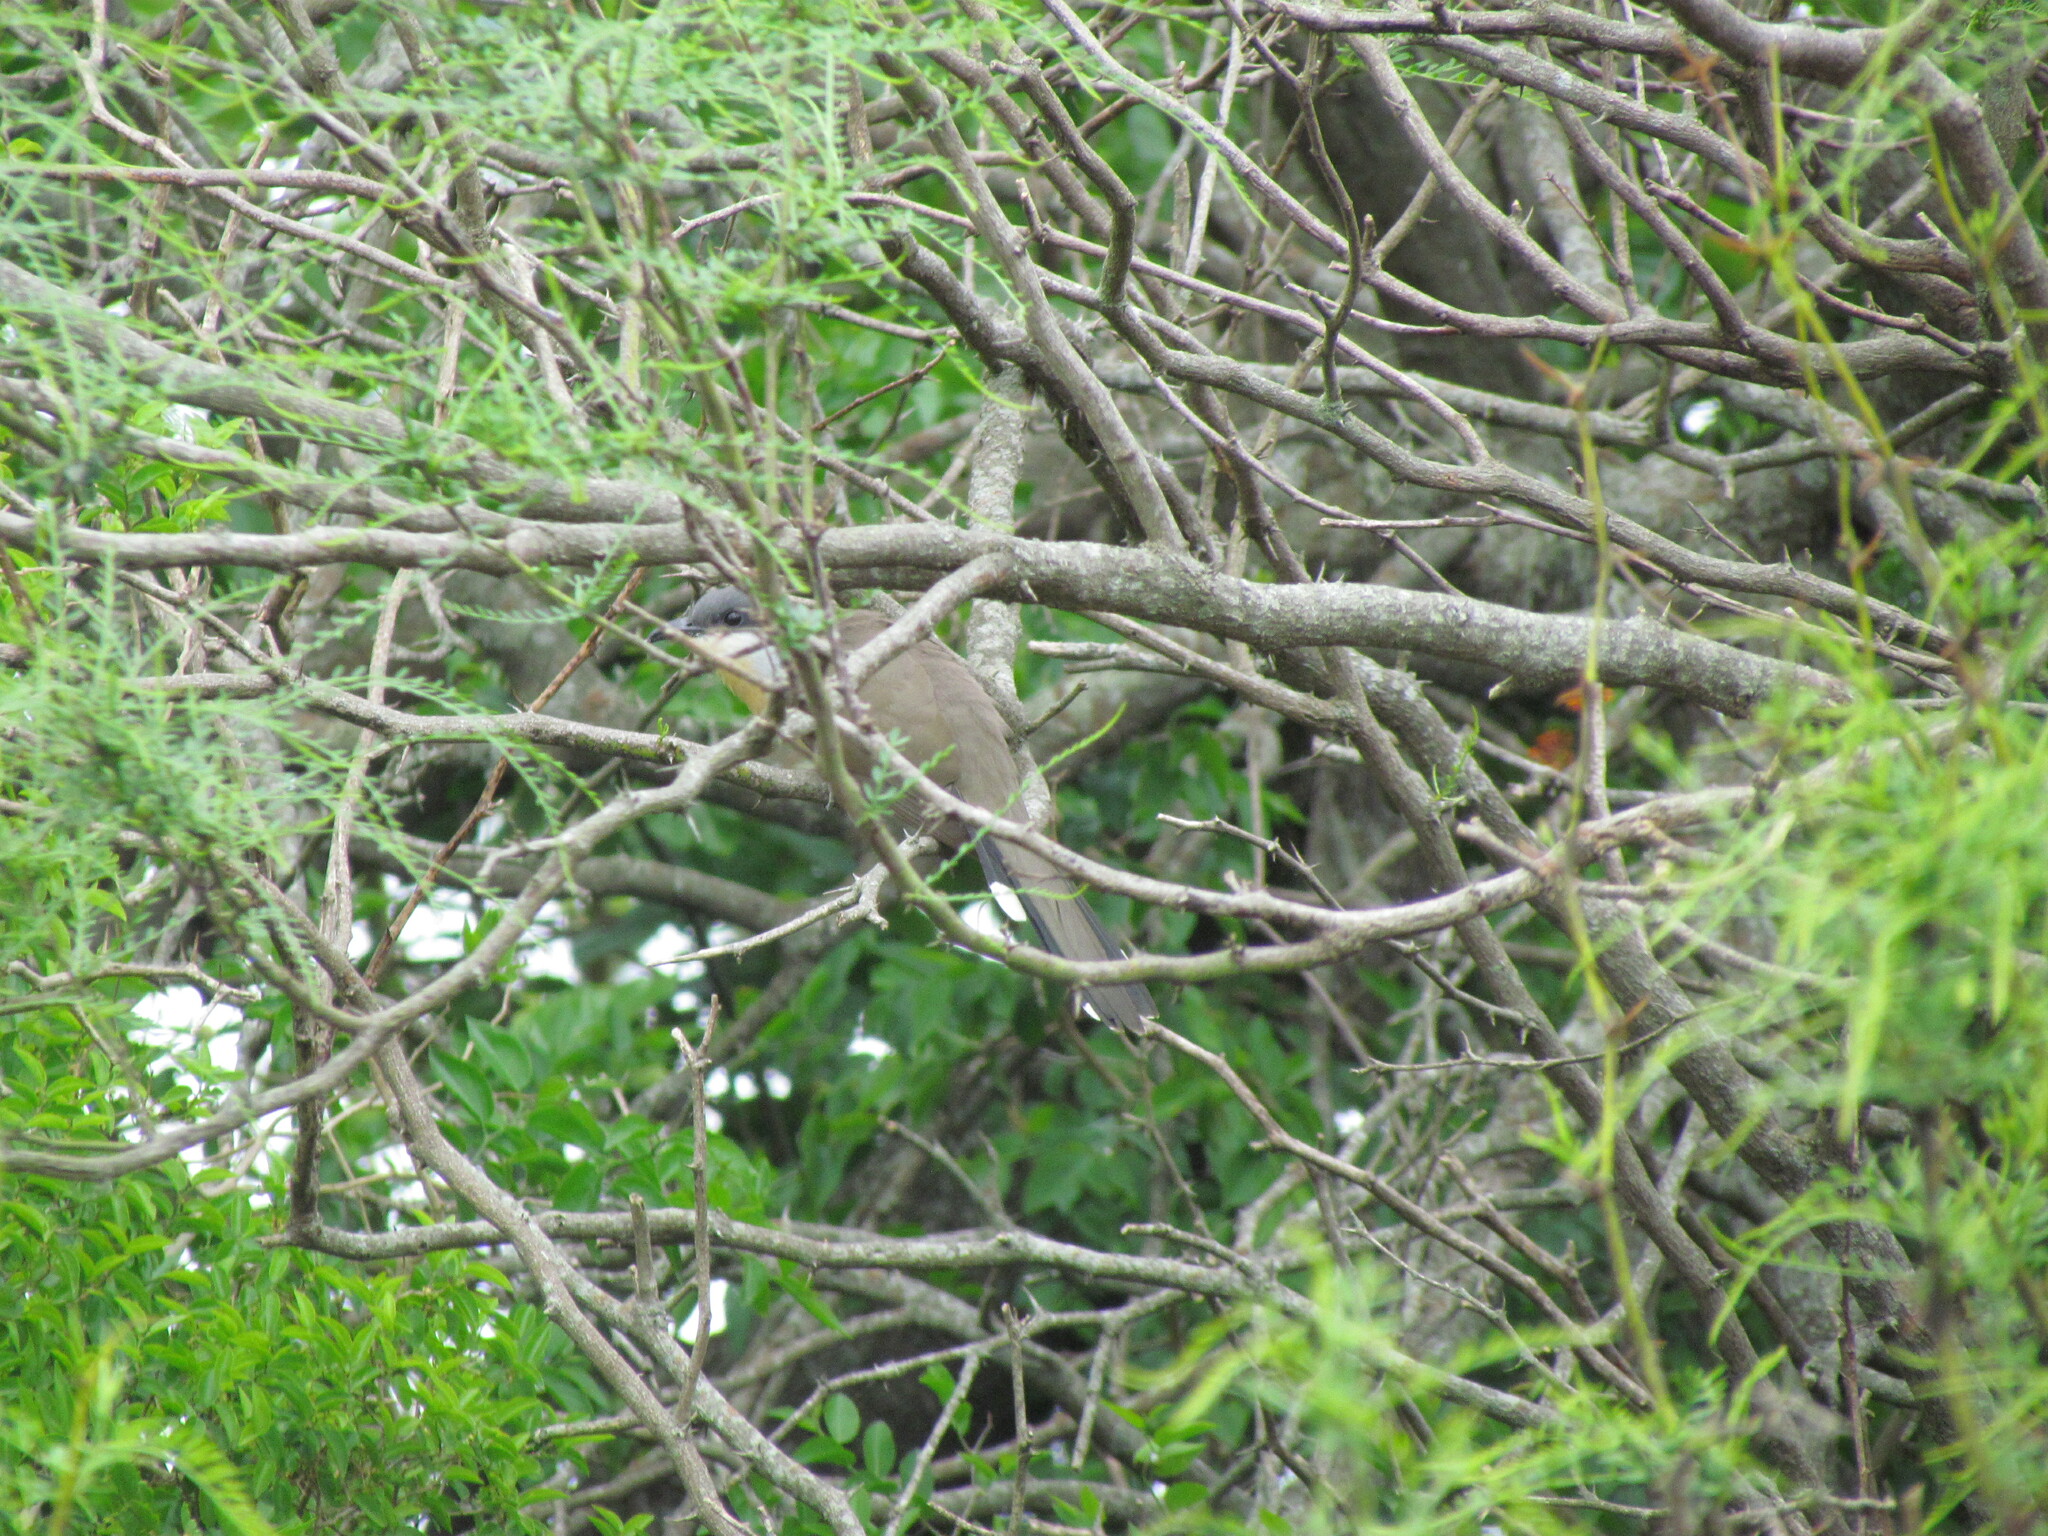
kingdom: Animalia
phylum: Chordata
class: Aves
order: Cuculiformes
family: Cuculidae
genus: Coccyzus
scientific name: Coccyzus melacoryphus
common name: Dark-billed cuckoo
